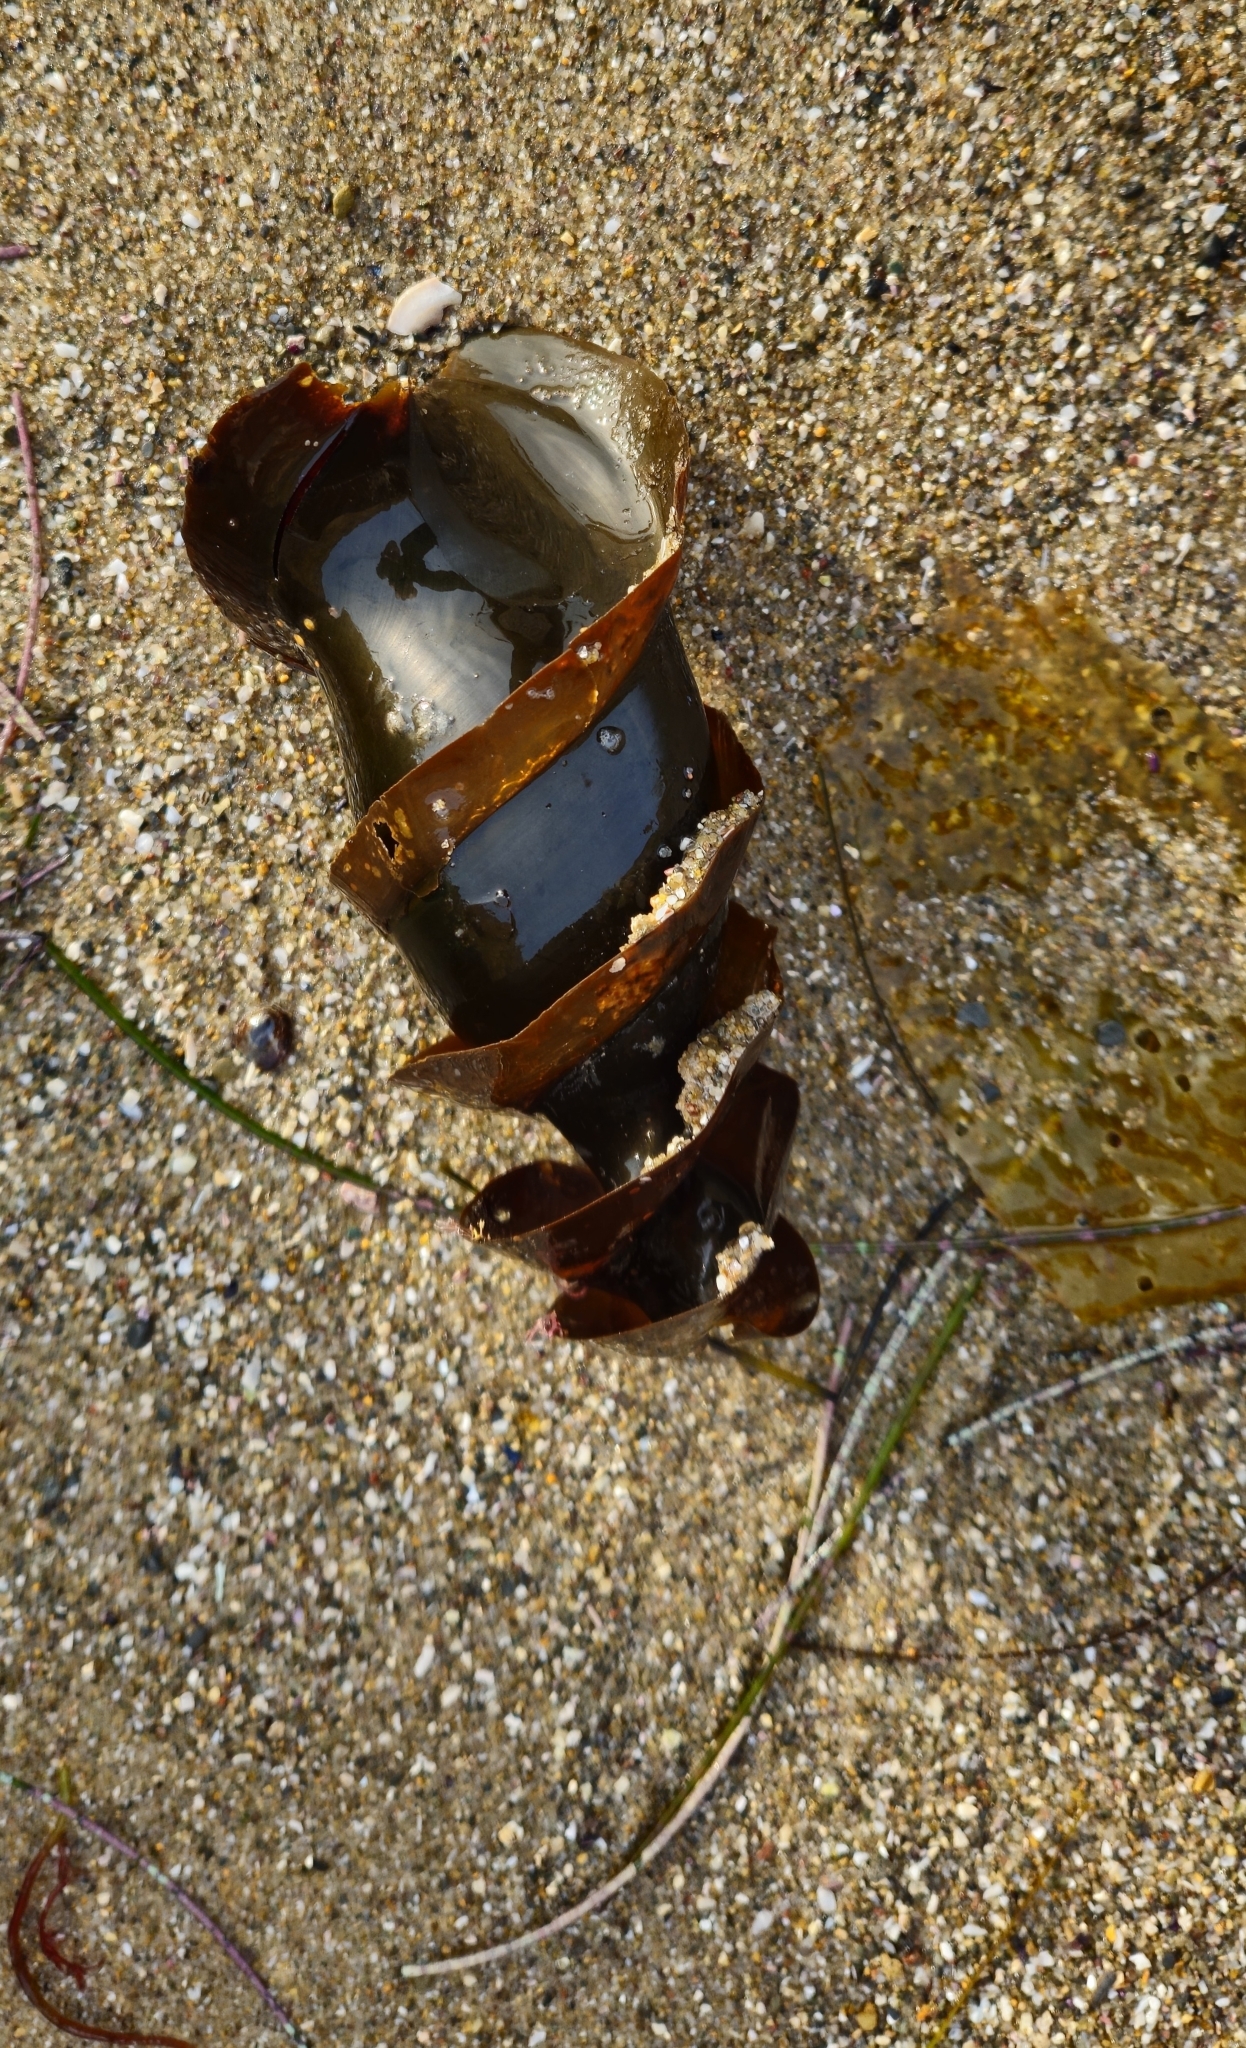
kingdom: Animalia
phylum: Chordata
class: Elasmobranchii
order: Heterodontiformes
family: Heterodontidae
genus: Heterodontus
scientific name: Heterodontus francisci
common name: Horn shark
